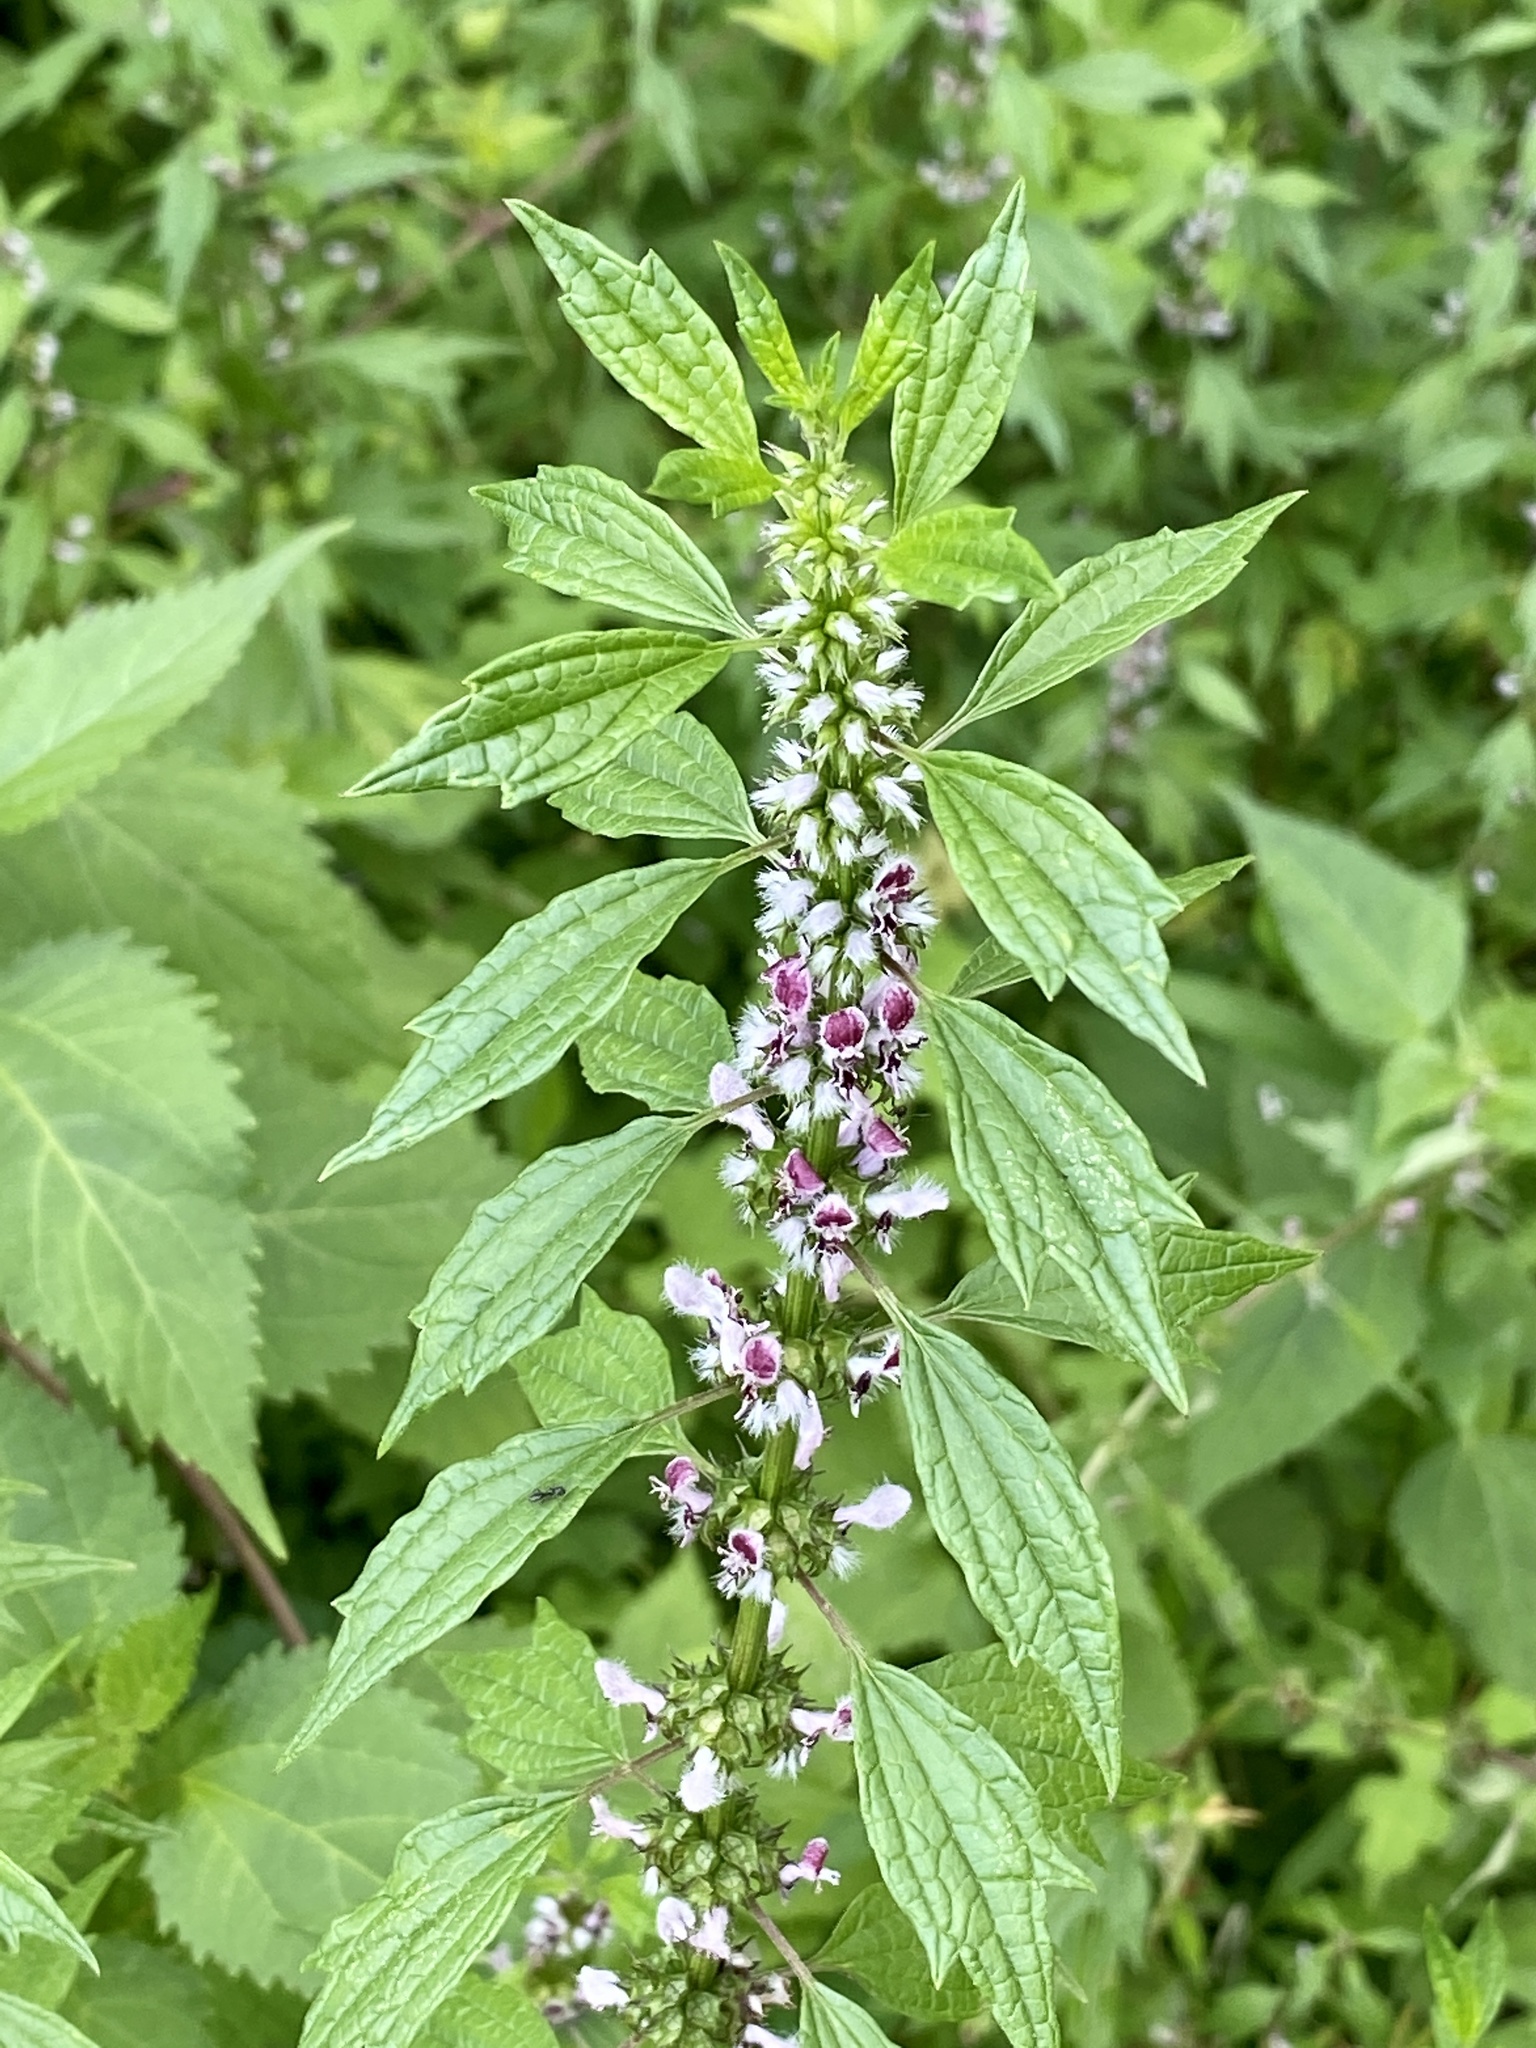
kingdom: Plantae
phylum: Tracheophyta
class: Magnoliopsida
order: Lamiales
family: Lamiaceae
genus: Leonurus
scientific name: Leonurus cardiaca
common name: Motherwort
